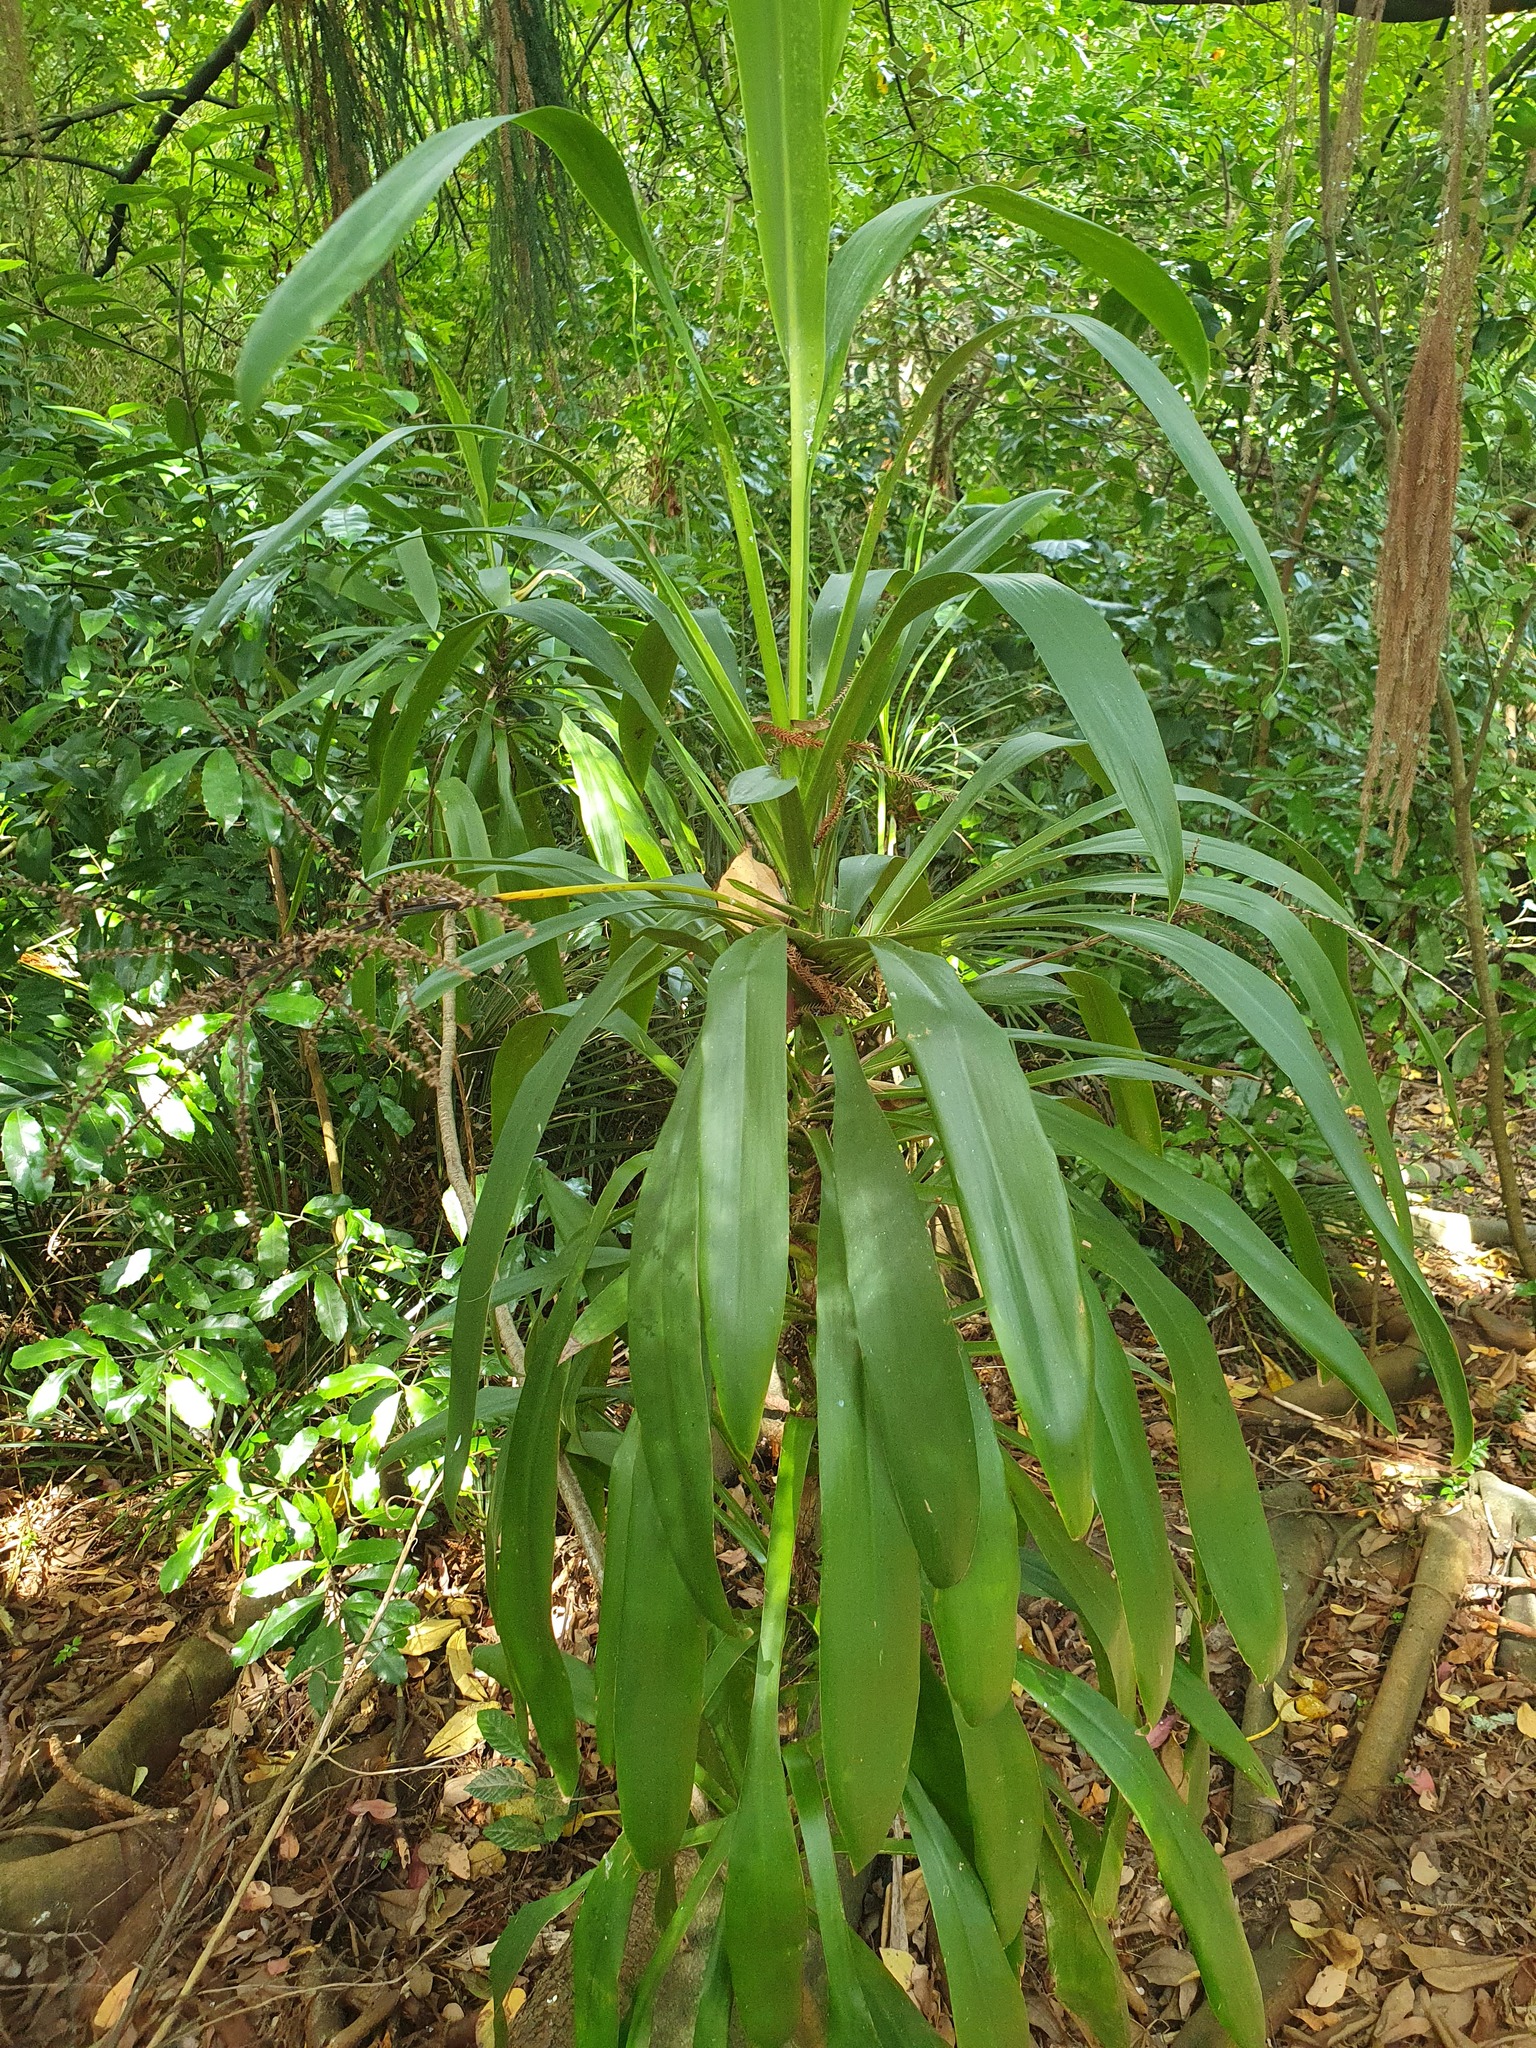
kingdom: Plantae
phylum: Tracheophyta
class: Liliopsida
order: Asparagales
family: Asparagaceae
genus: Cordyline
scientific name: Cordyline rubra
